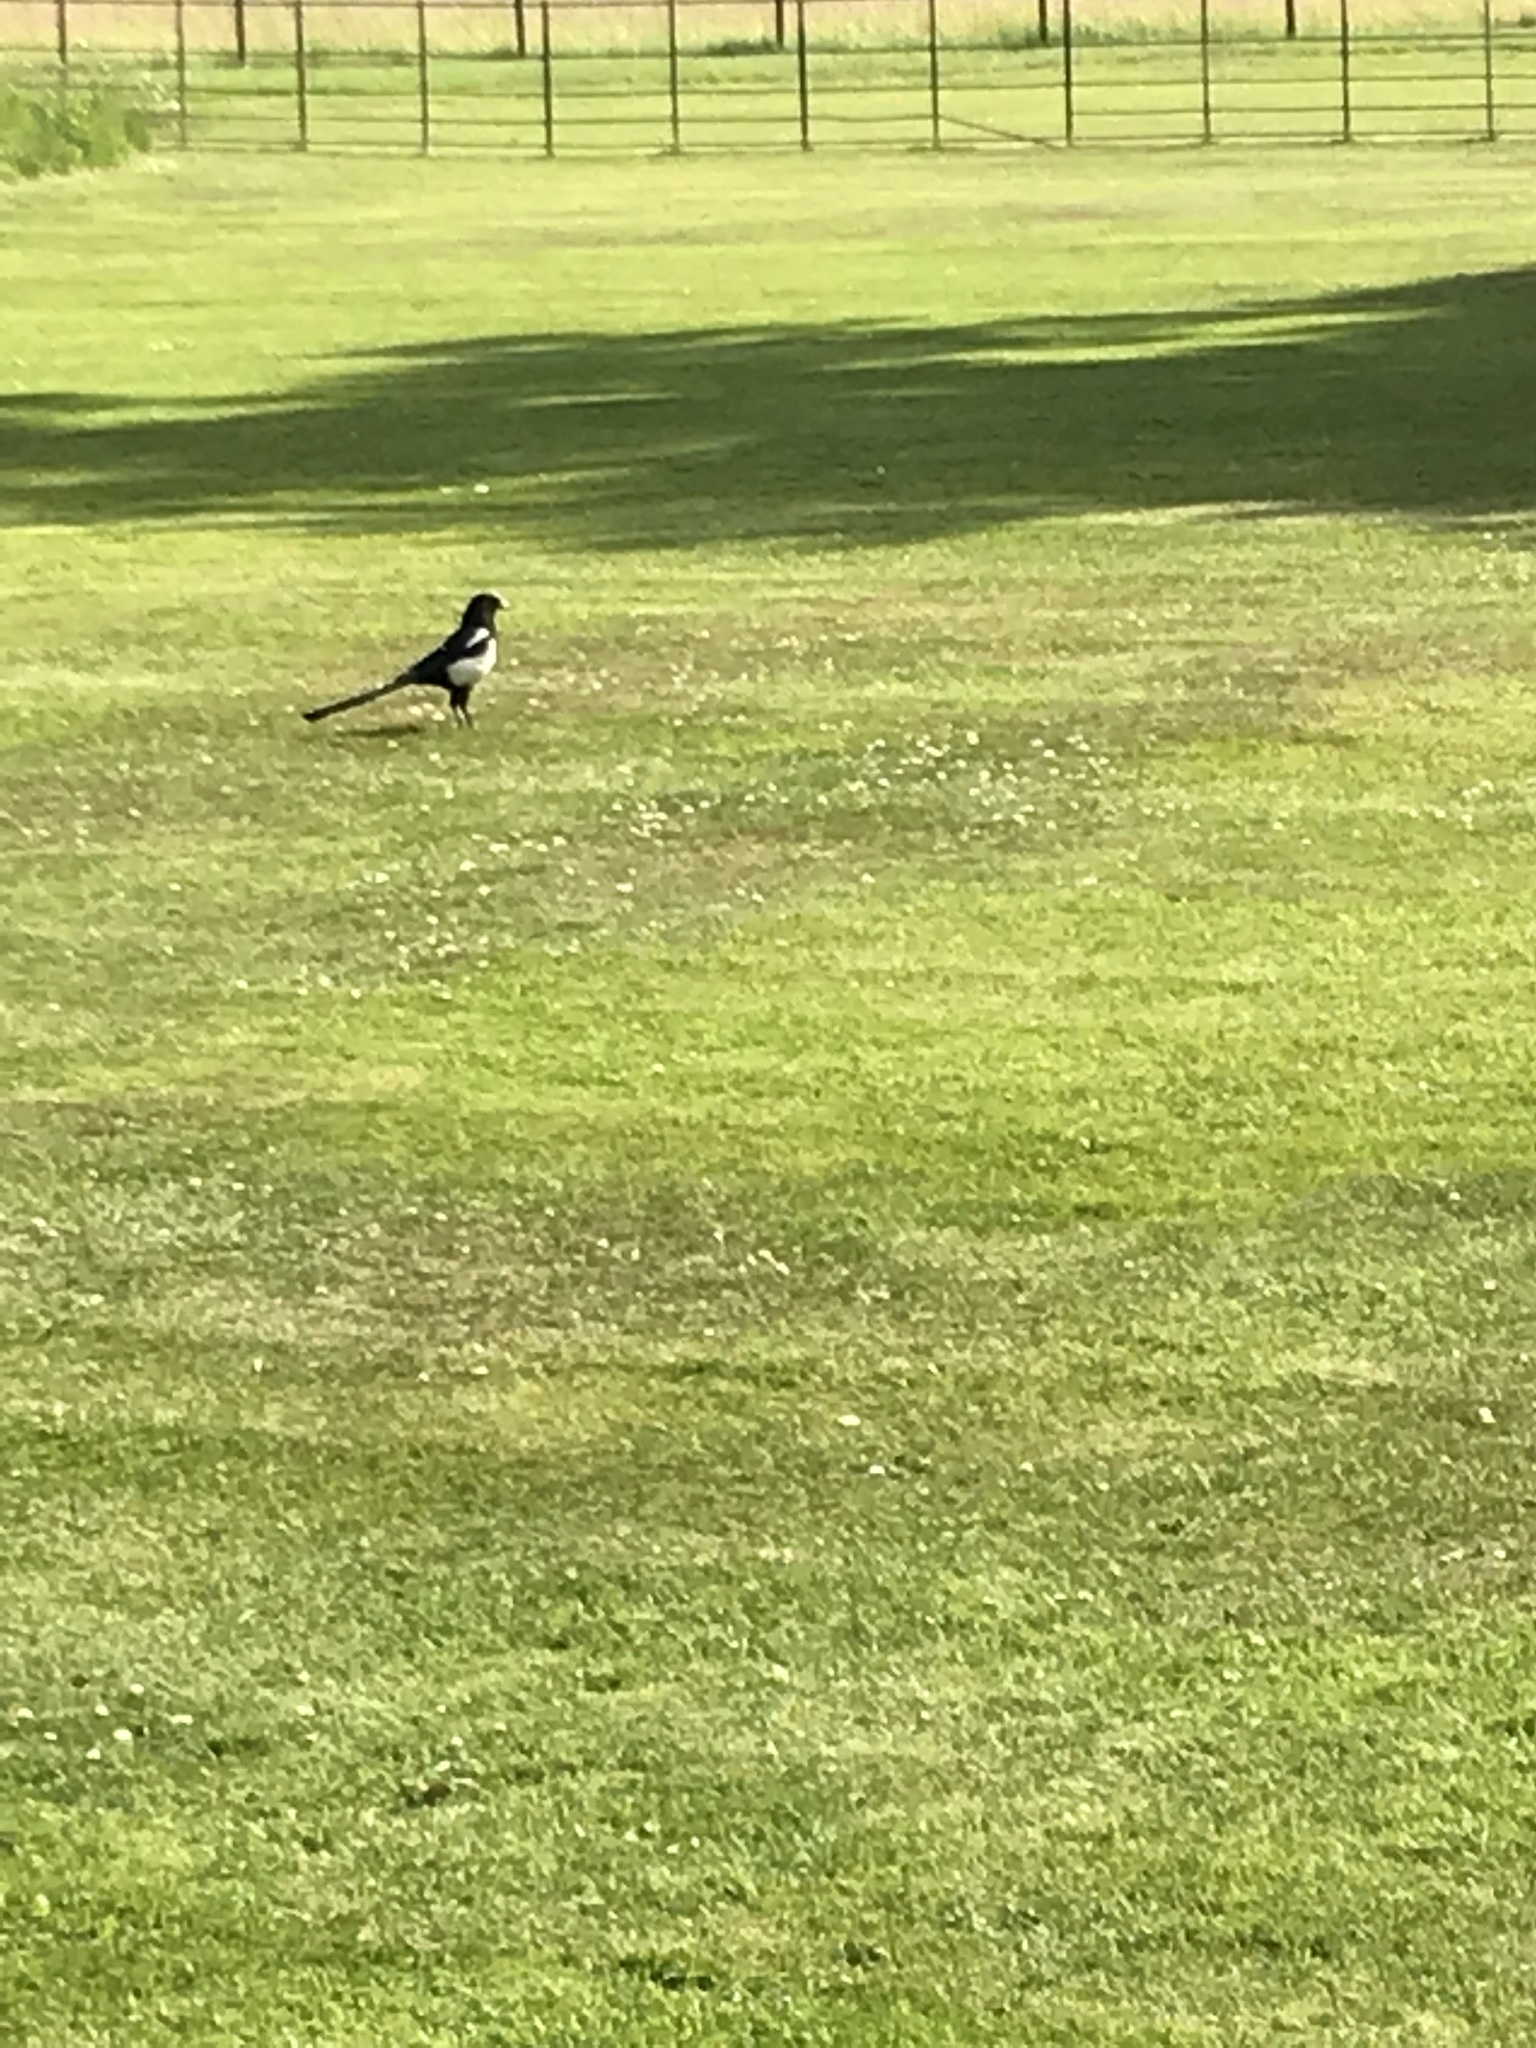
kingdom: Animalia
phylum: Chordata
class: Aves
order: Passeriformes
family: Corvidae
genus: Pica
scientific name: Pica pica
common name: Eurasian magpie
